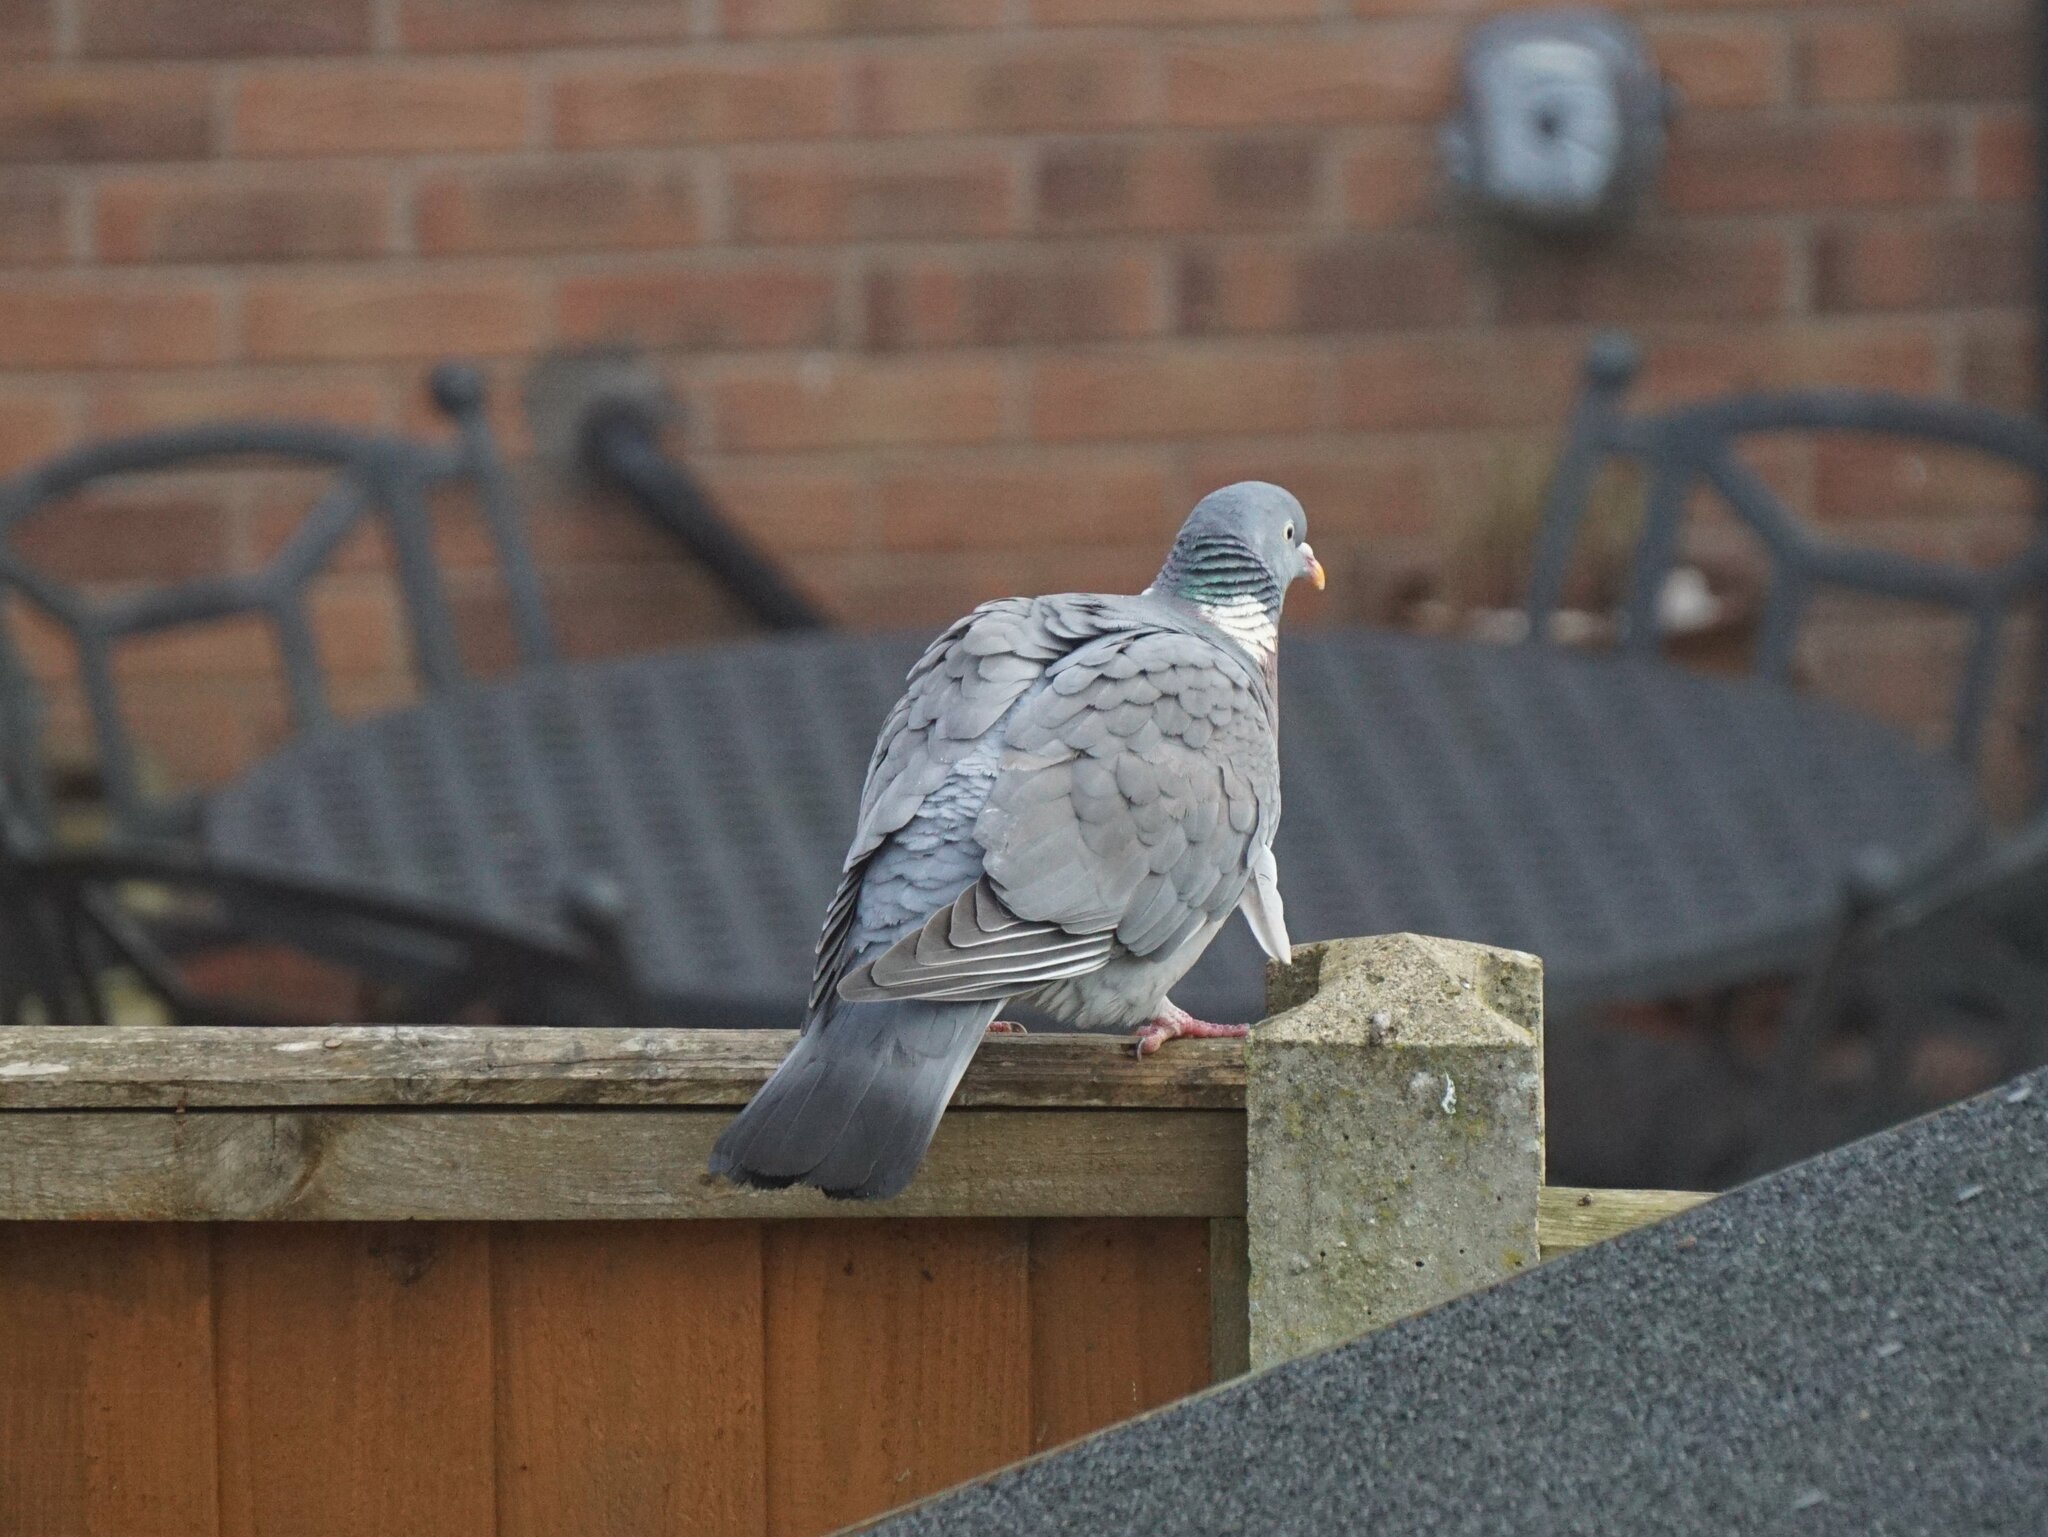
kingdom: Animalia
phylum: Chordata
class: Aves
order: Columbiformes
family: Columbidae
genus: Columba
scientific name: Columba palumbus
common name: Common wood pigeon
